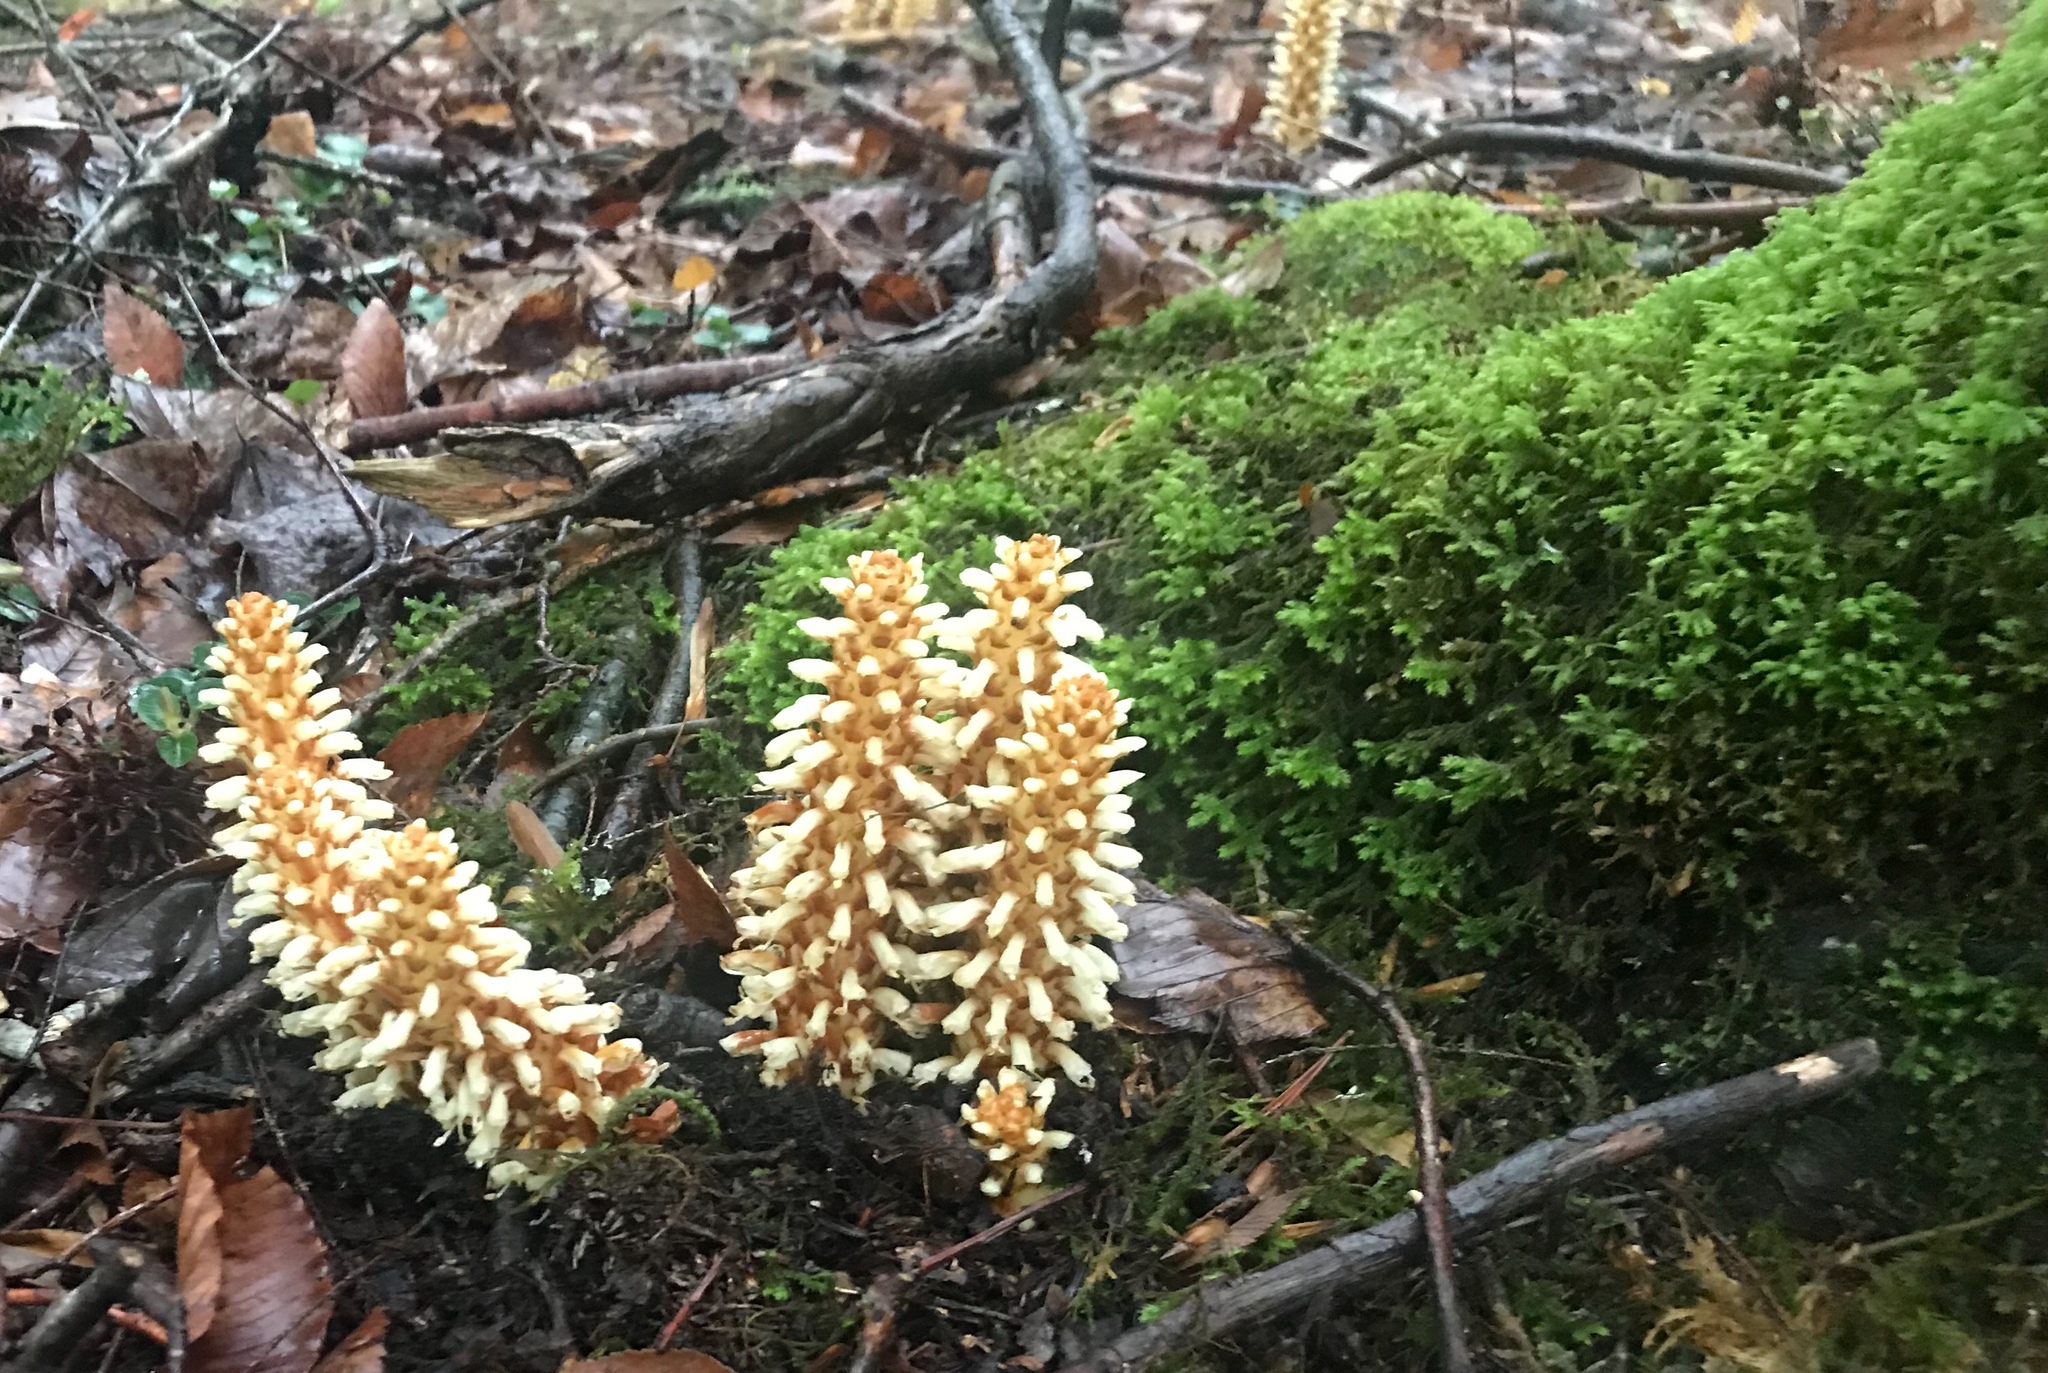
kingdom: Plantae
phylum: Tracheophyta
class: Magnoliopsida
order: Lamiales
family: Orobanchaceae
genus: Conopholis
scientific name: Conopholis americana
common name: American cancer-root
